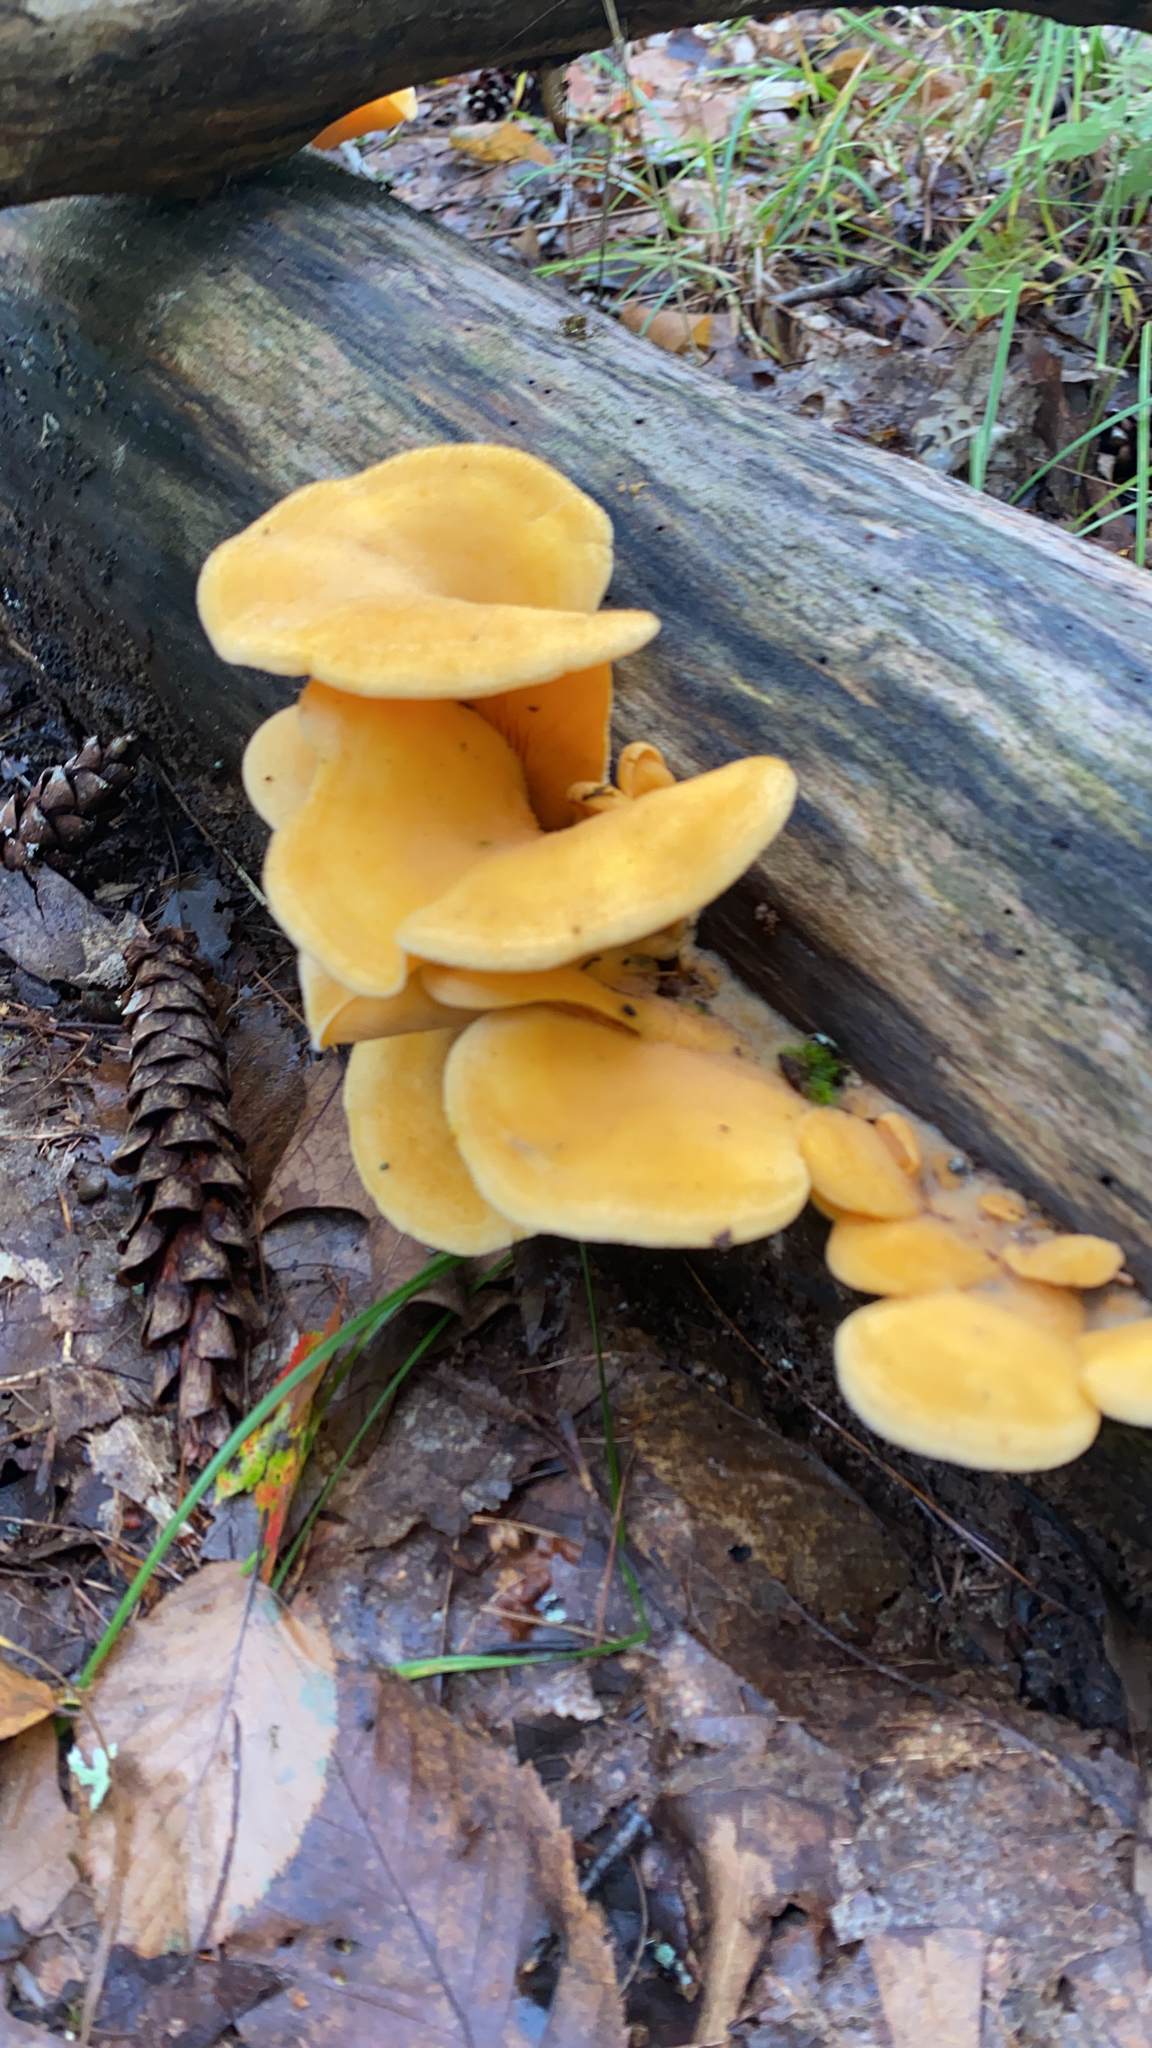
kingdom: Fungi
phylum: Basidiomycota
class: Agaricomycetes
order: Agaricales
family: Phyllotopsidaceae
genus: Phyllotopsis
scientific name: Phyllotopsis nidulans
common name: Orange mock oyster
